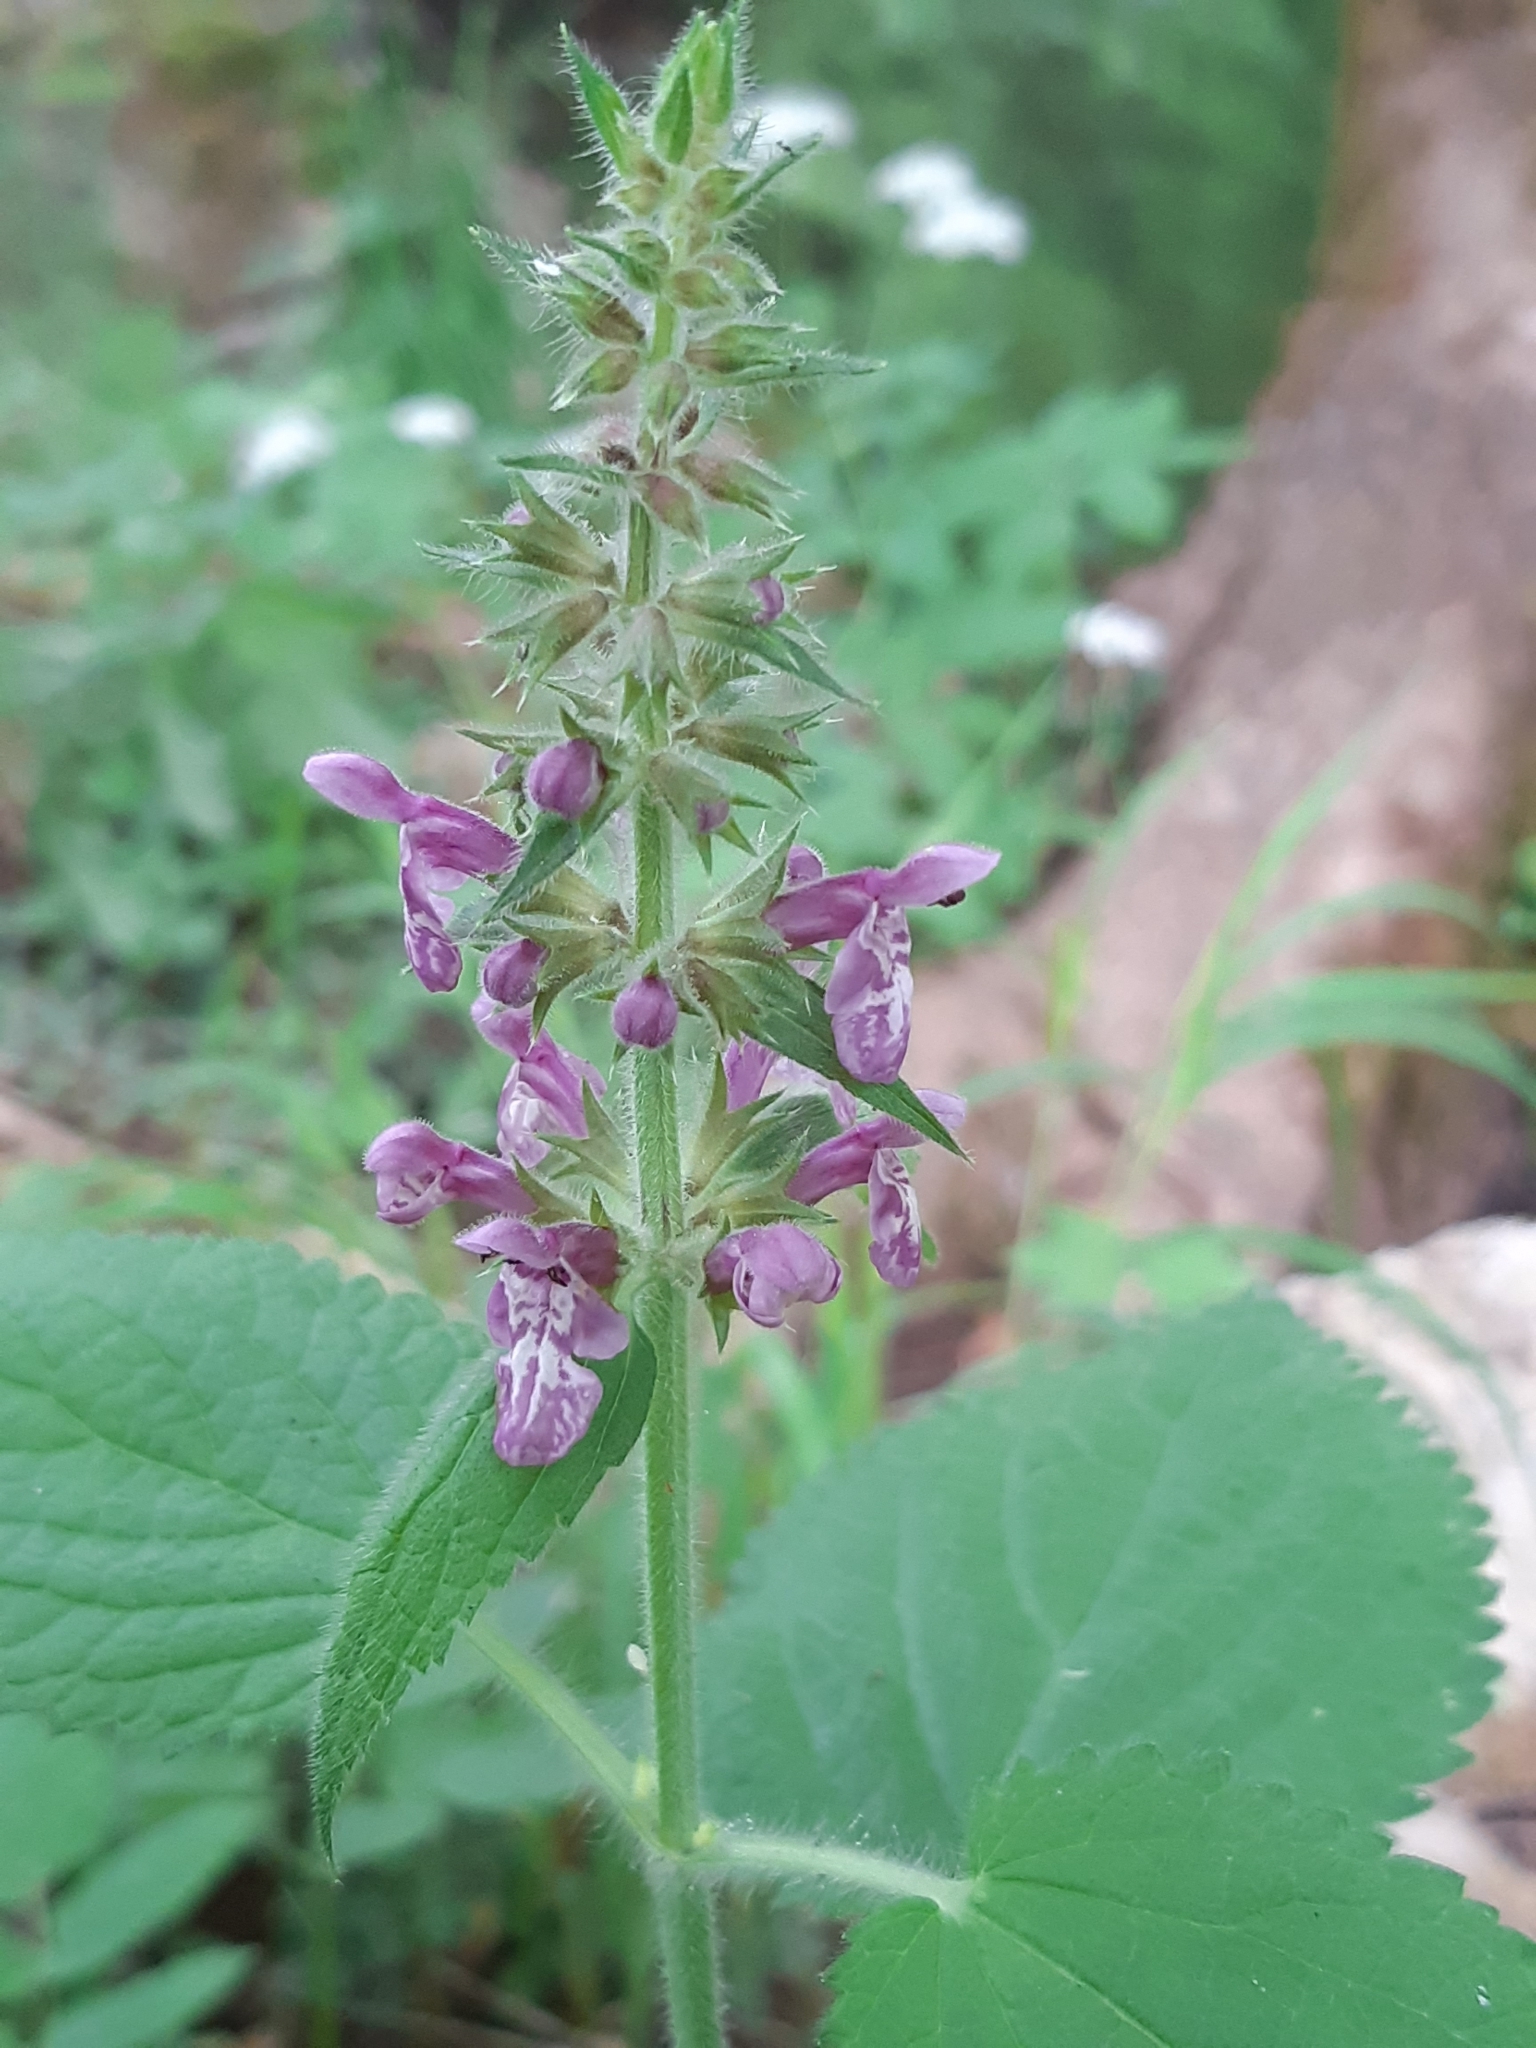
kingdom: Plantae
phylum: Tracheophyta
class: Magnoliopsida
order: Lamiales
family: Lamiaceae
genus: Stachys
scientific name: Stachys sylvatica
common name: Hedge woundwort
